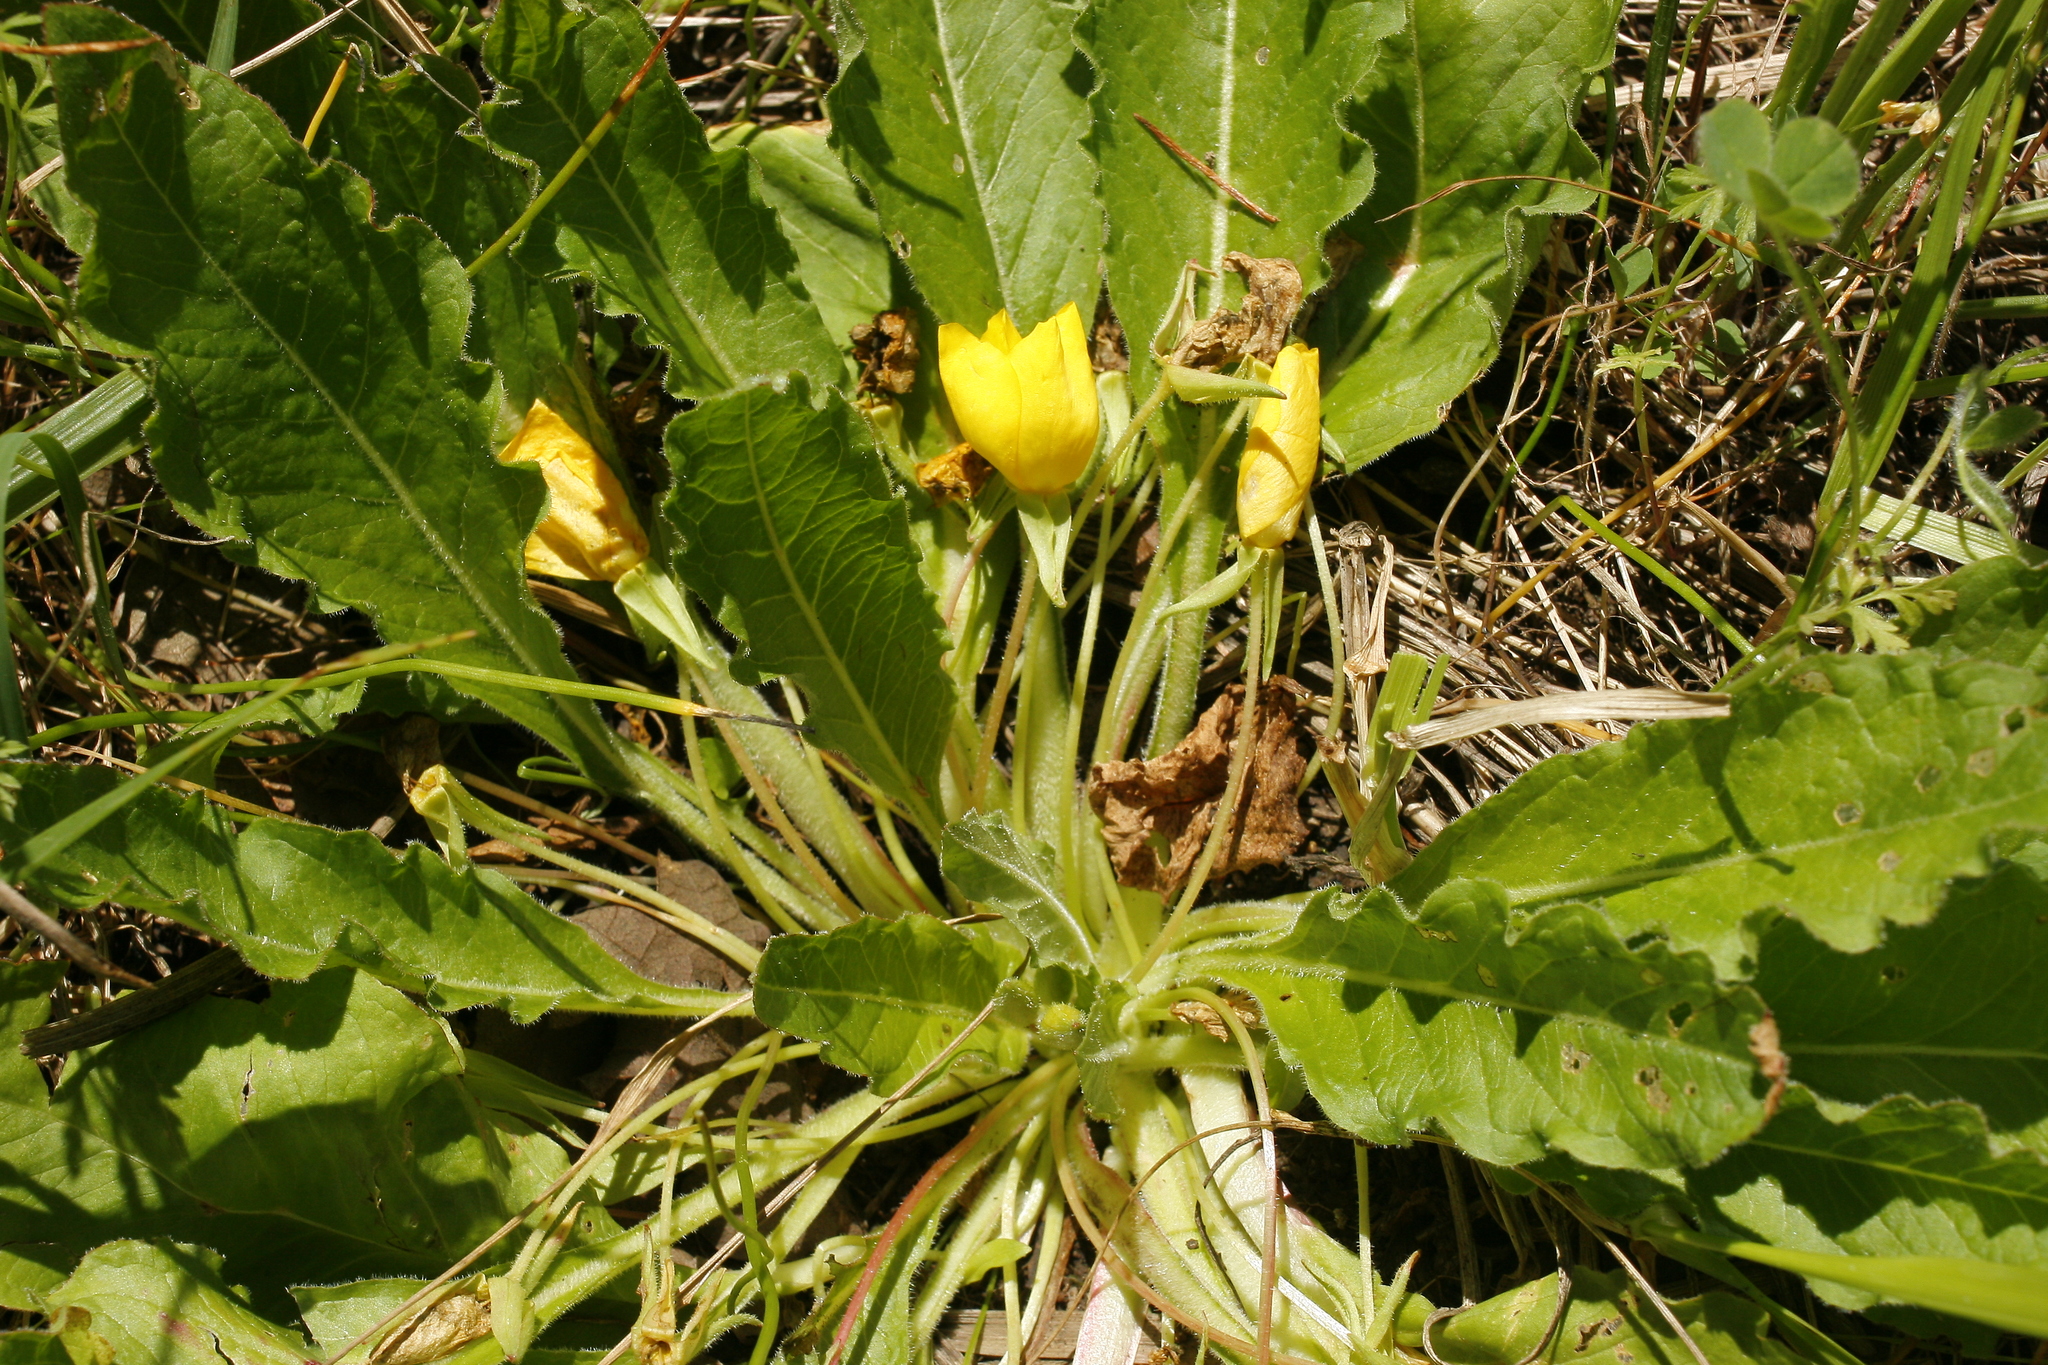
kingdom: Plantae
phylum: Tracheophyta
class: Magnoliopsida
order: Myrtales
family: Onagraceae
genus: Taraxia
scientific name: Taraxia ovata
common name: Goldeneggs
